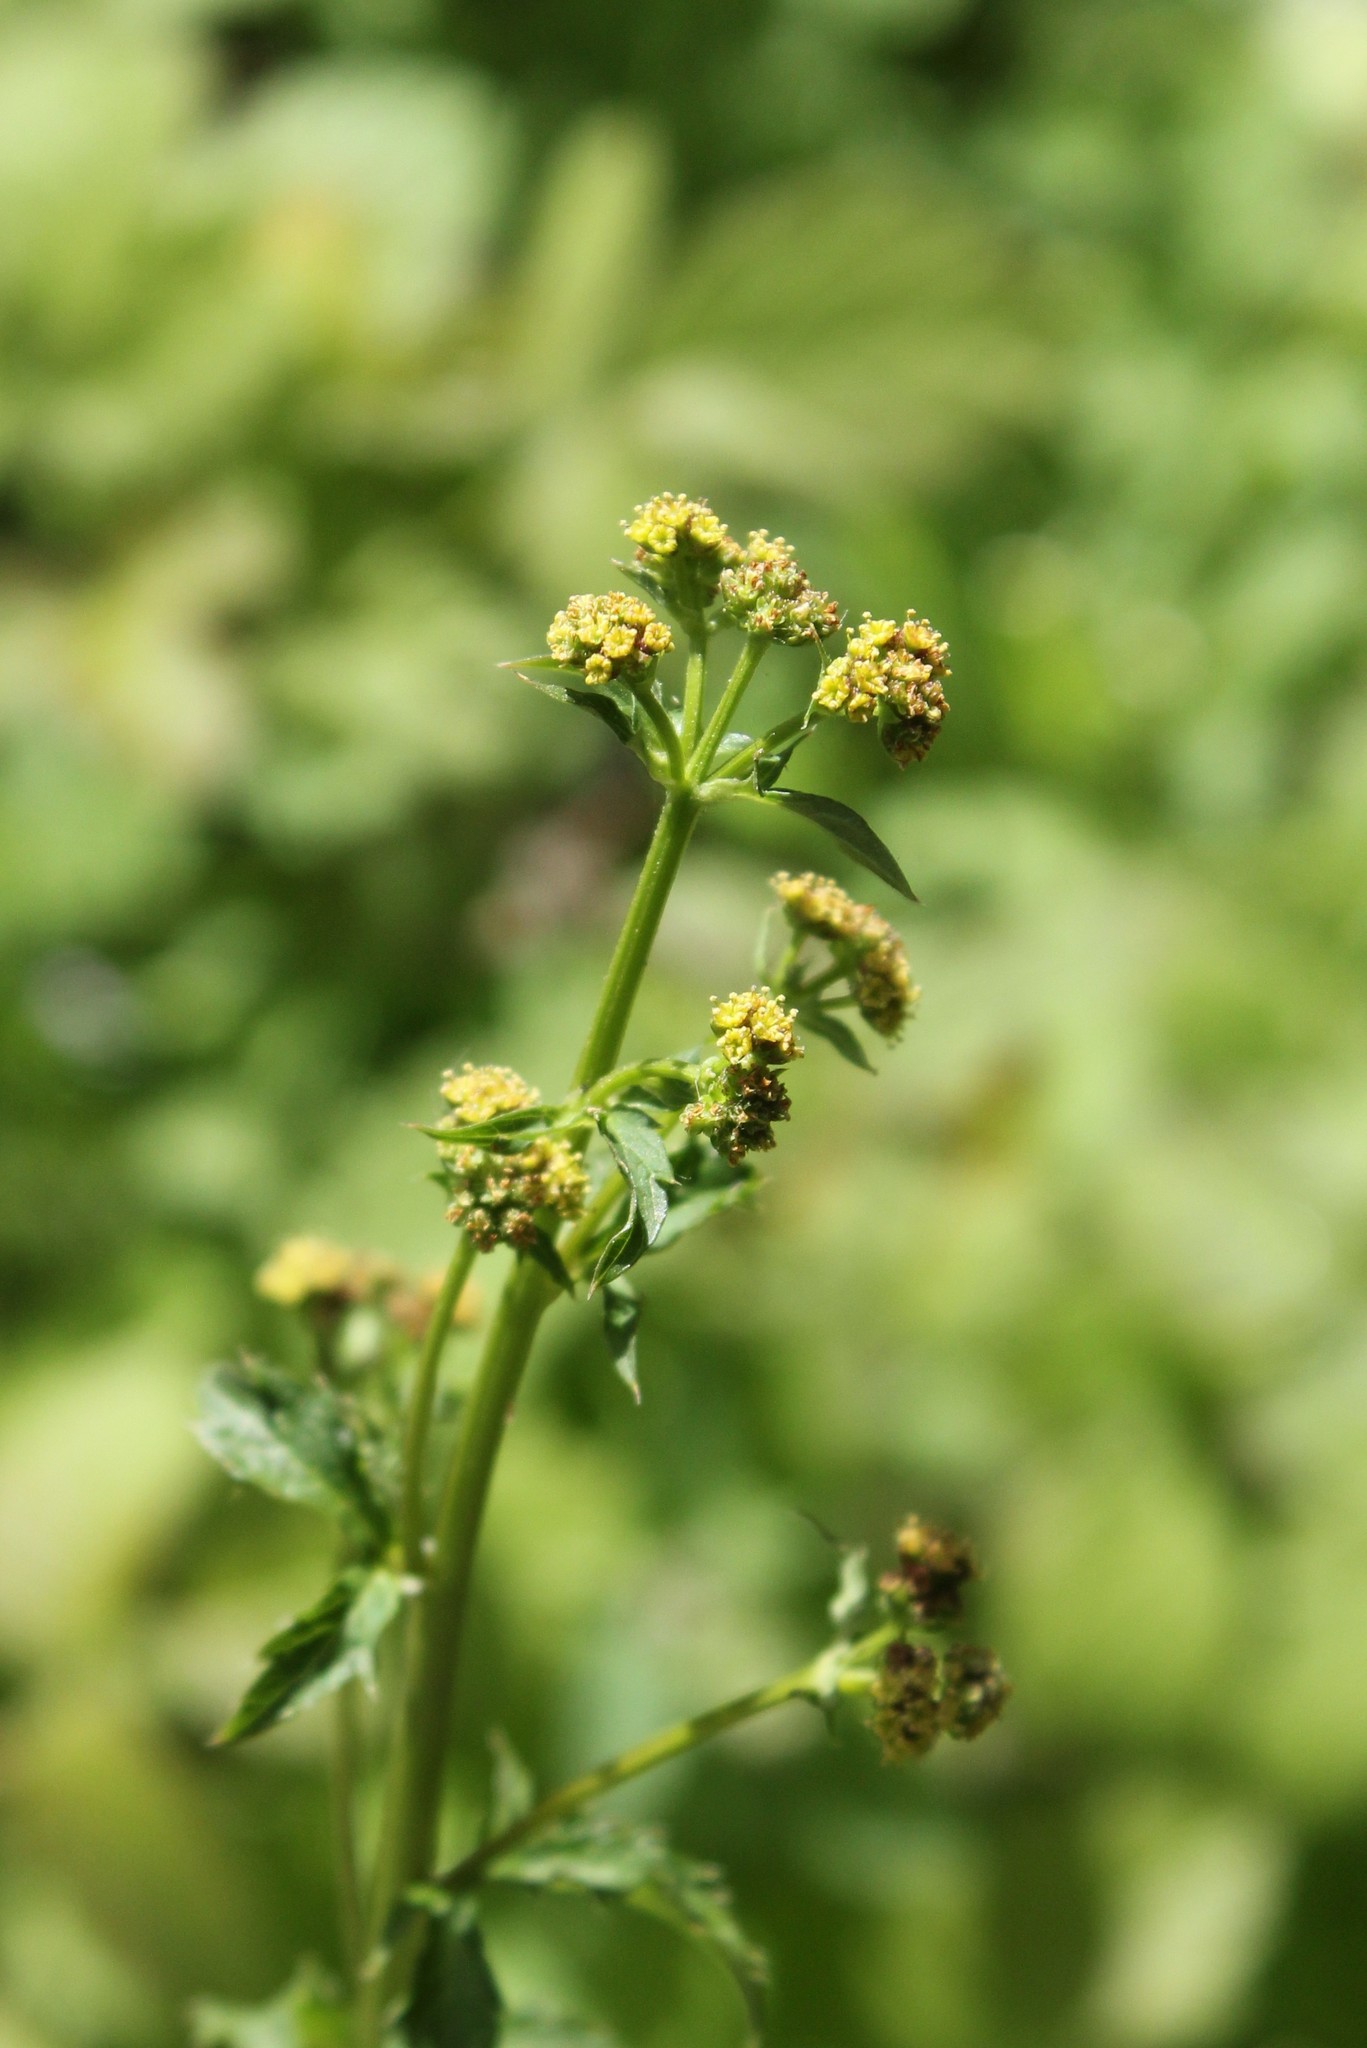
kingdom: Plantae
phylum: Tracheophyta
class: Magnoliopsida
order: Apiales
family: Apiaceae
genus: Sanicula
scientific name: Sanicula crassicaulis
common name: Western snakeroot
